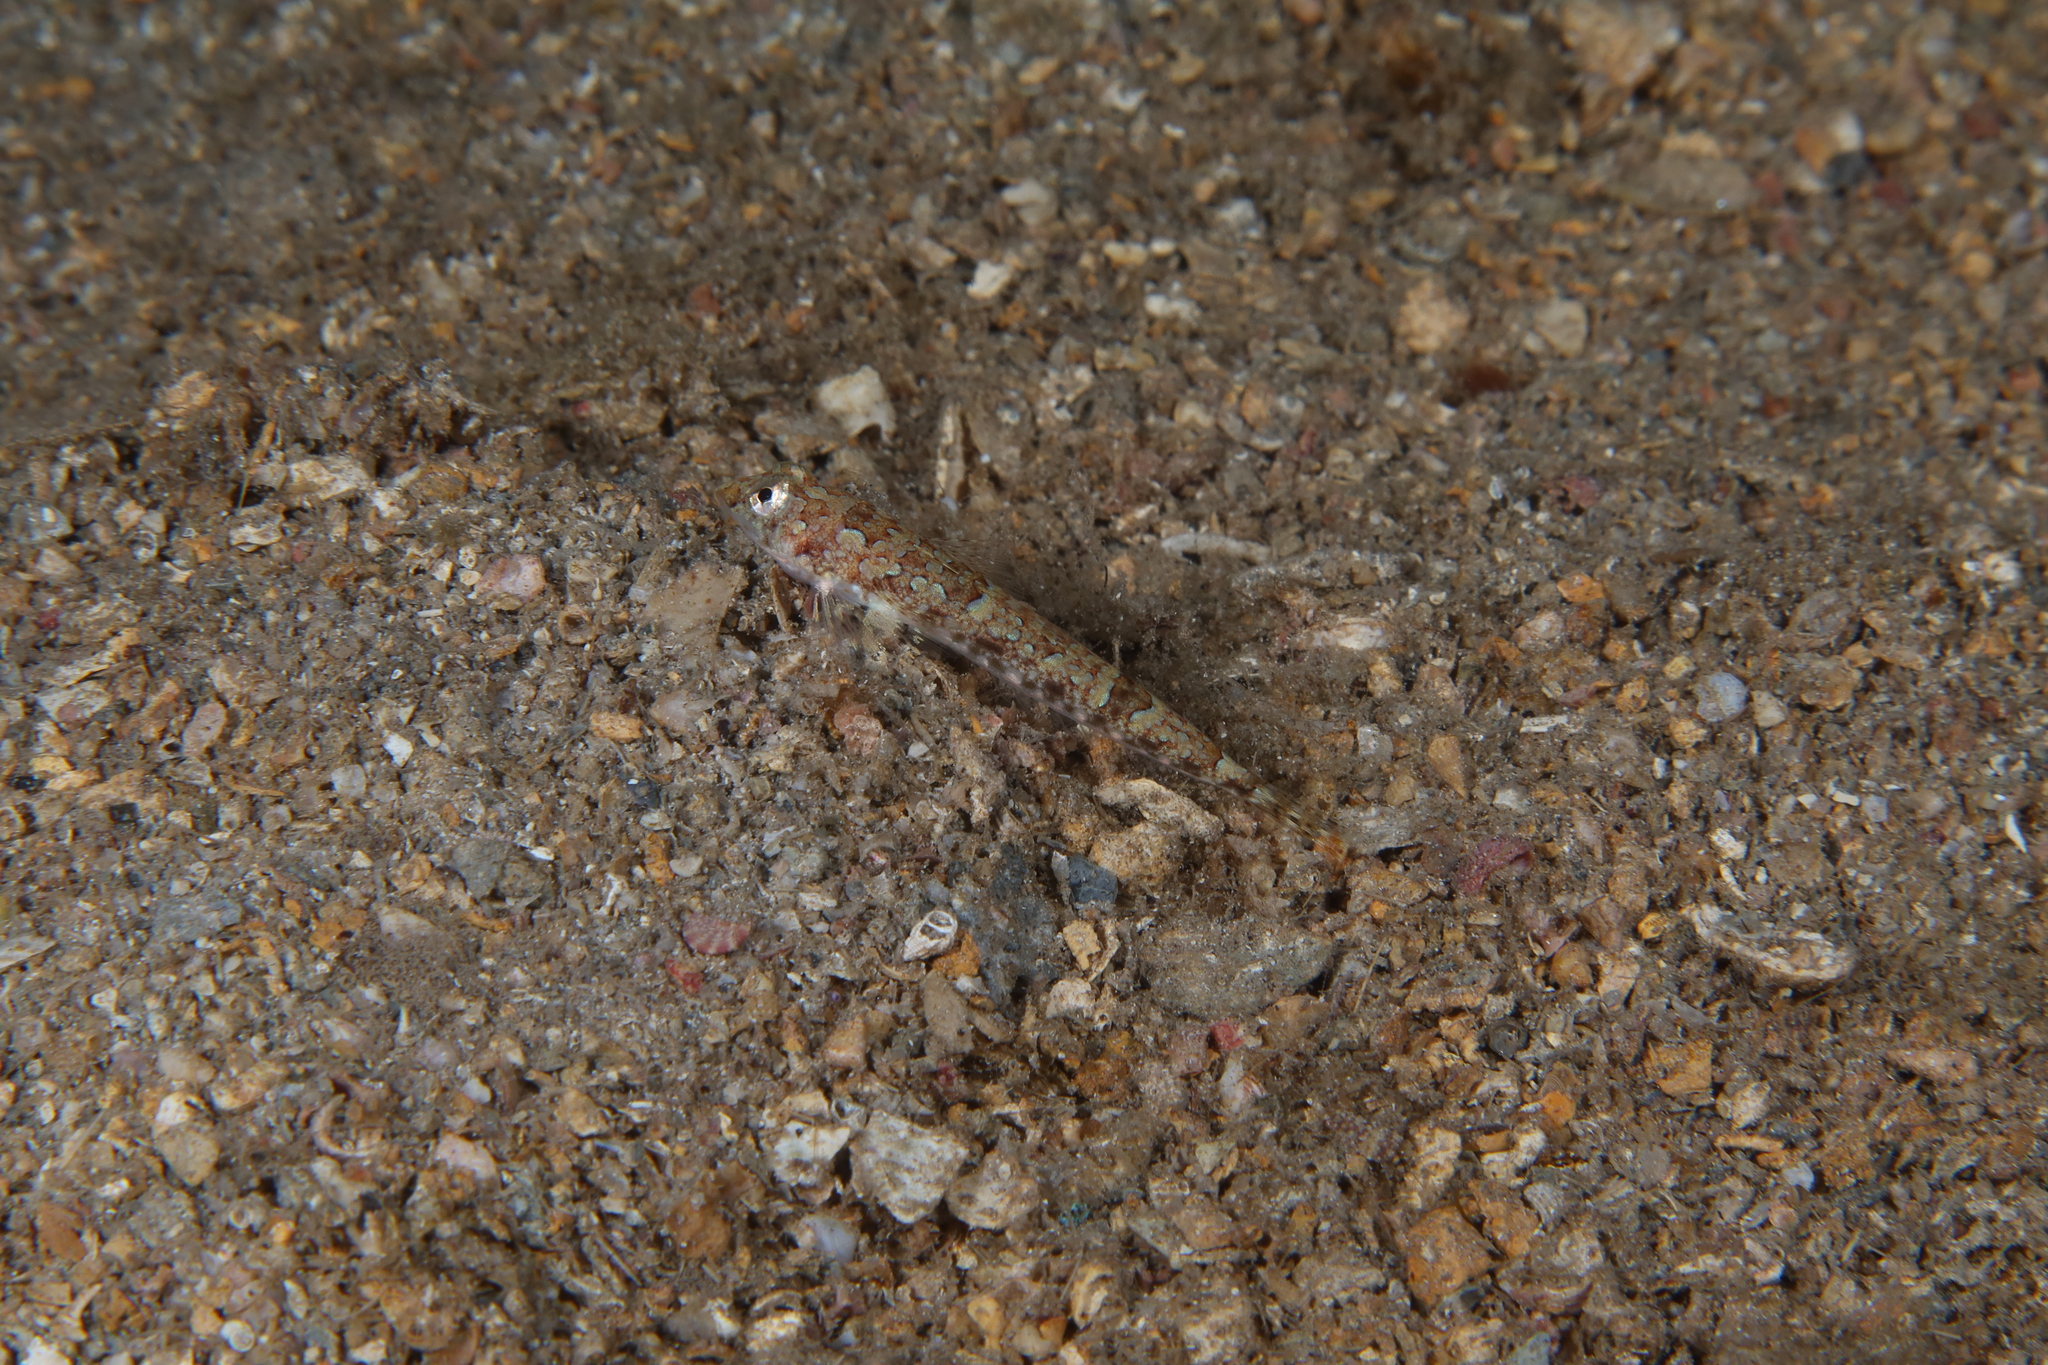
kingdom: Animalia
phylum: Chordata
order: Perciformes
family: Callionymidae
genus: Callionymus
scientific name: Callionymus reticulatus
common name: Reticulated dragonet
